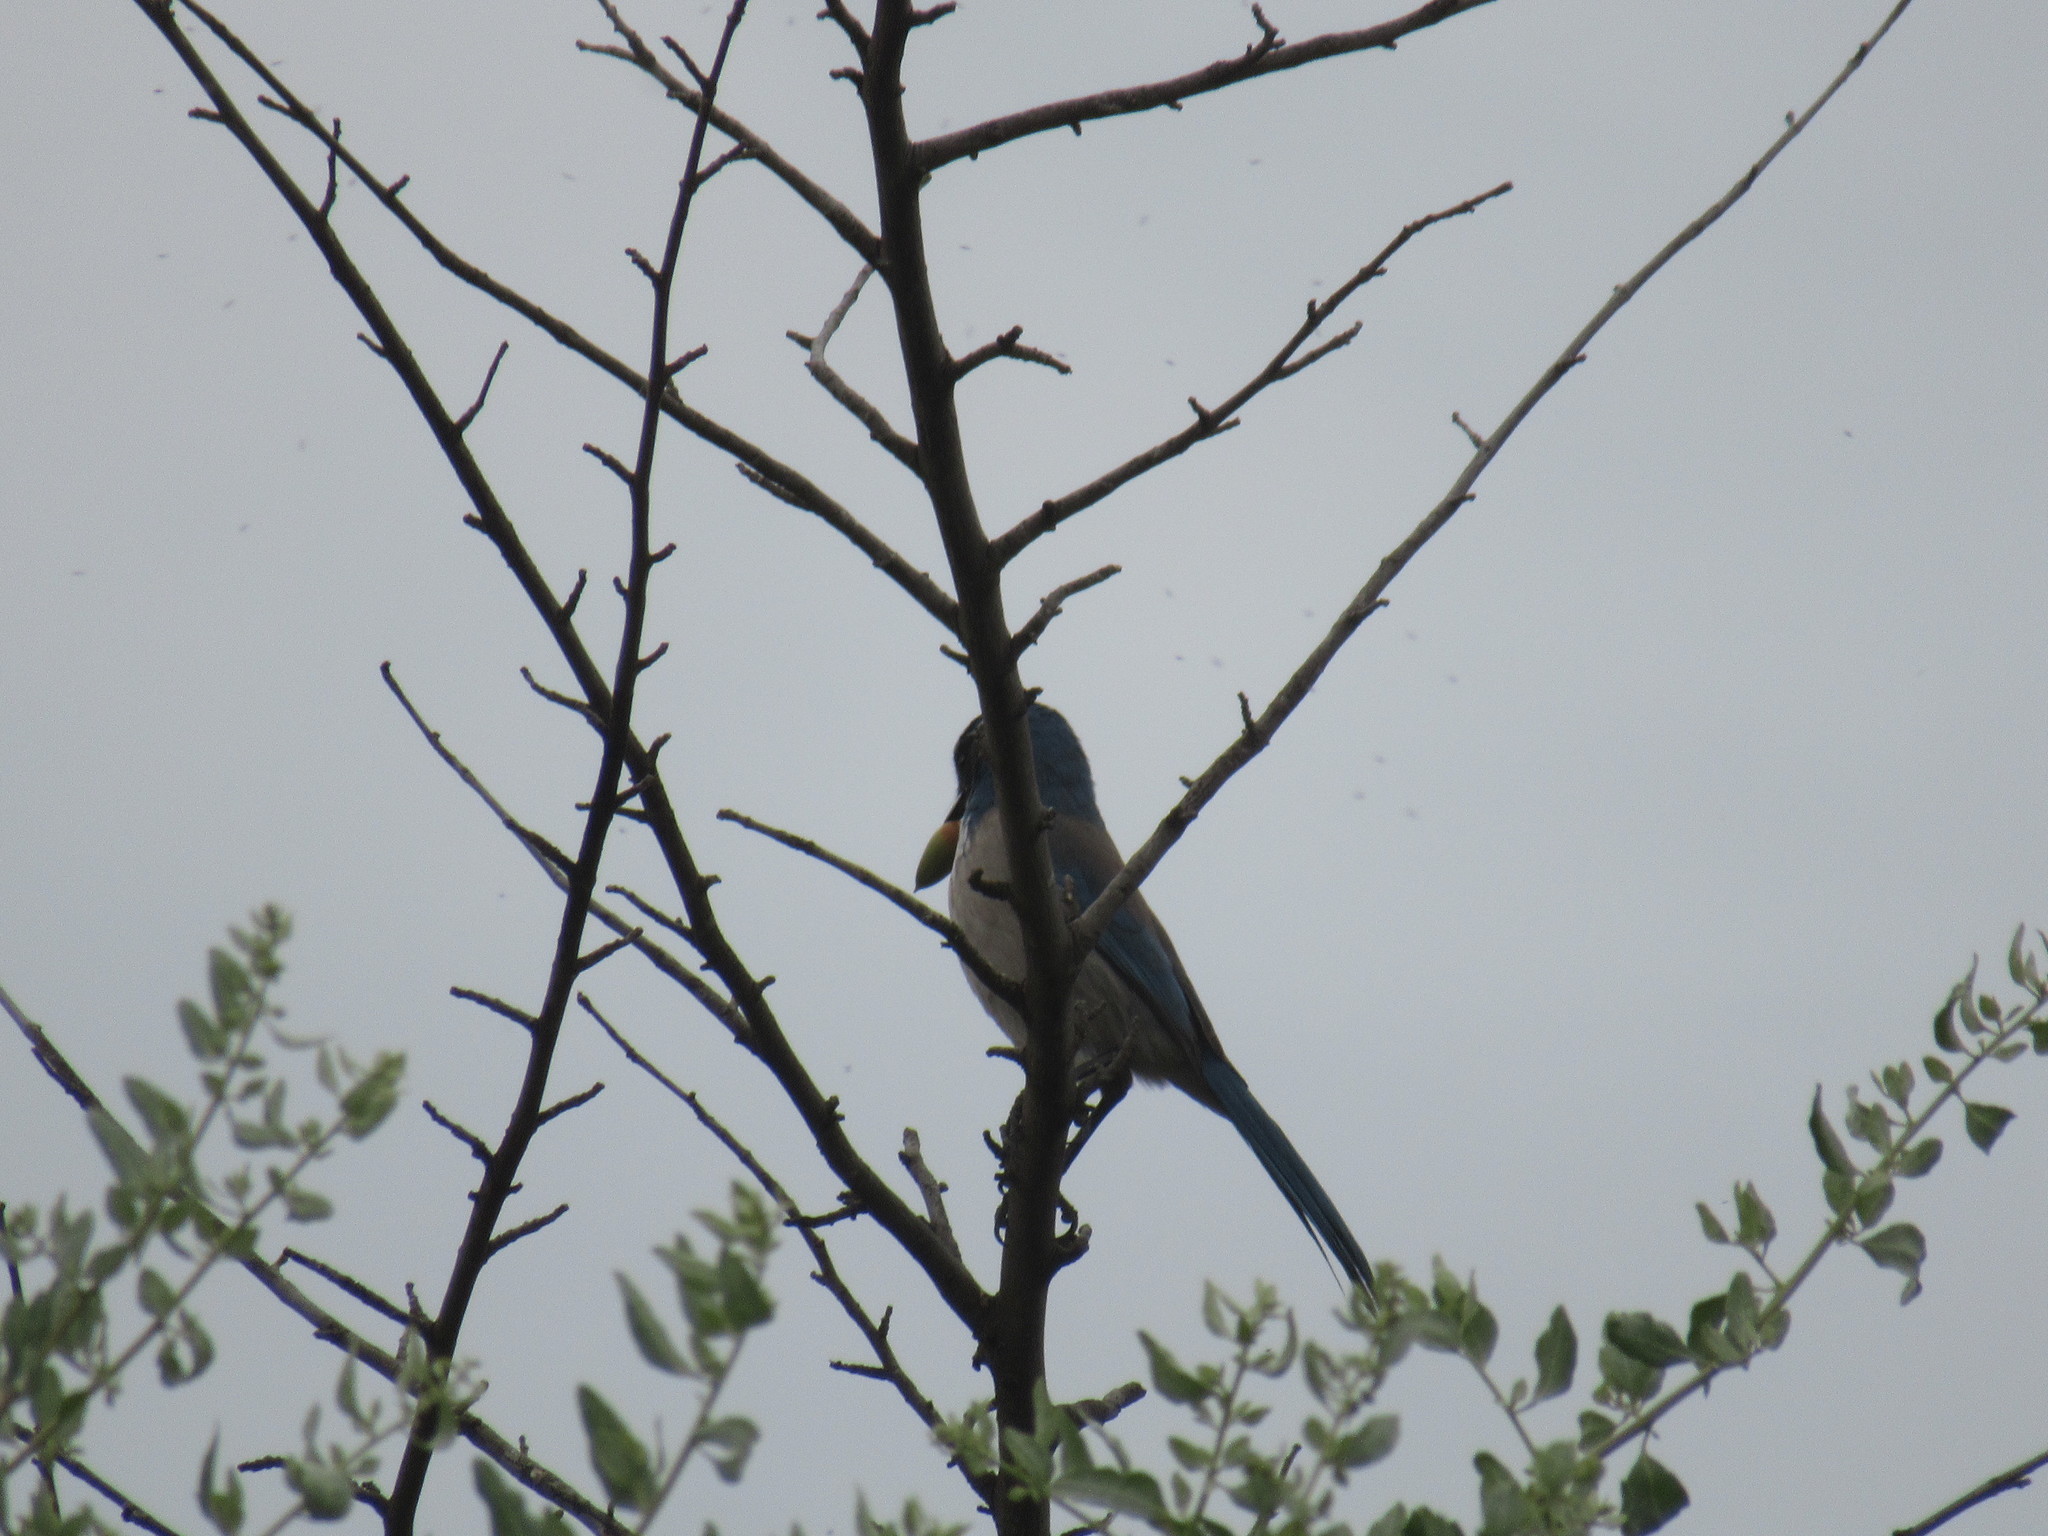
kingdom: Animalia
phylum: Chordata
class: Aves
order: Passeriformes
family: Corvidae
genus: Aphelocoma
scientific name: Aphelocoma californica
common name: California scrub-jay
